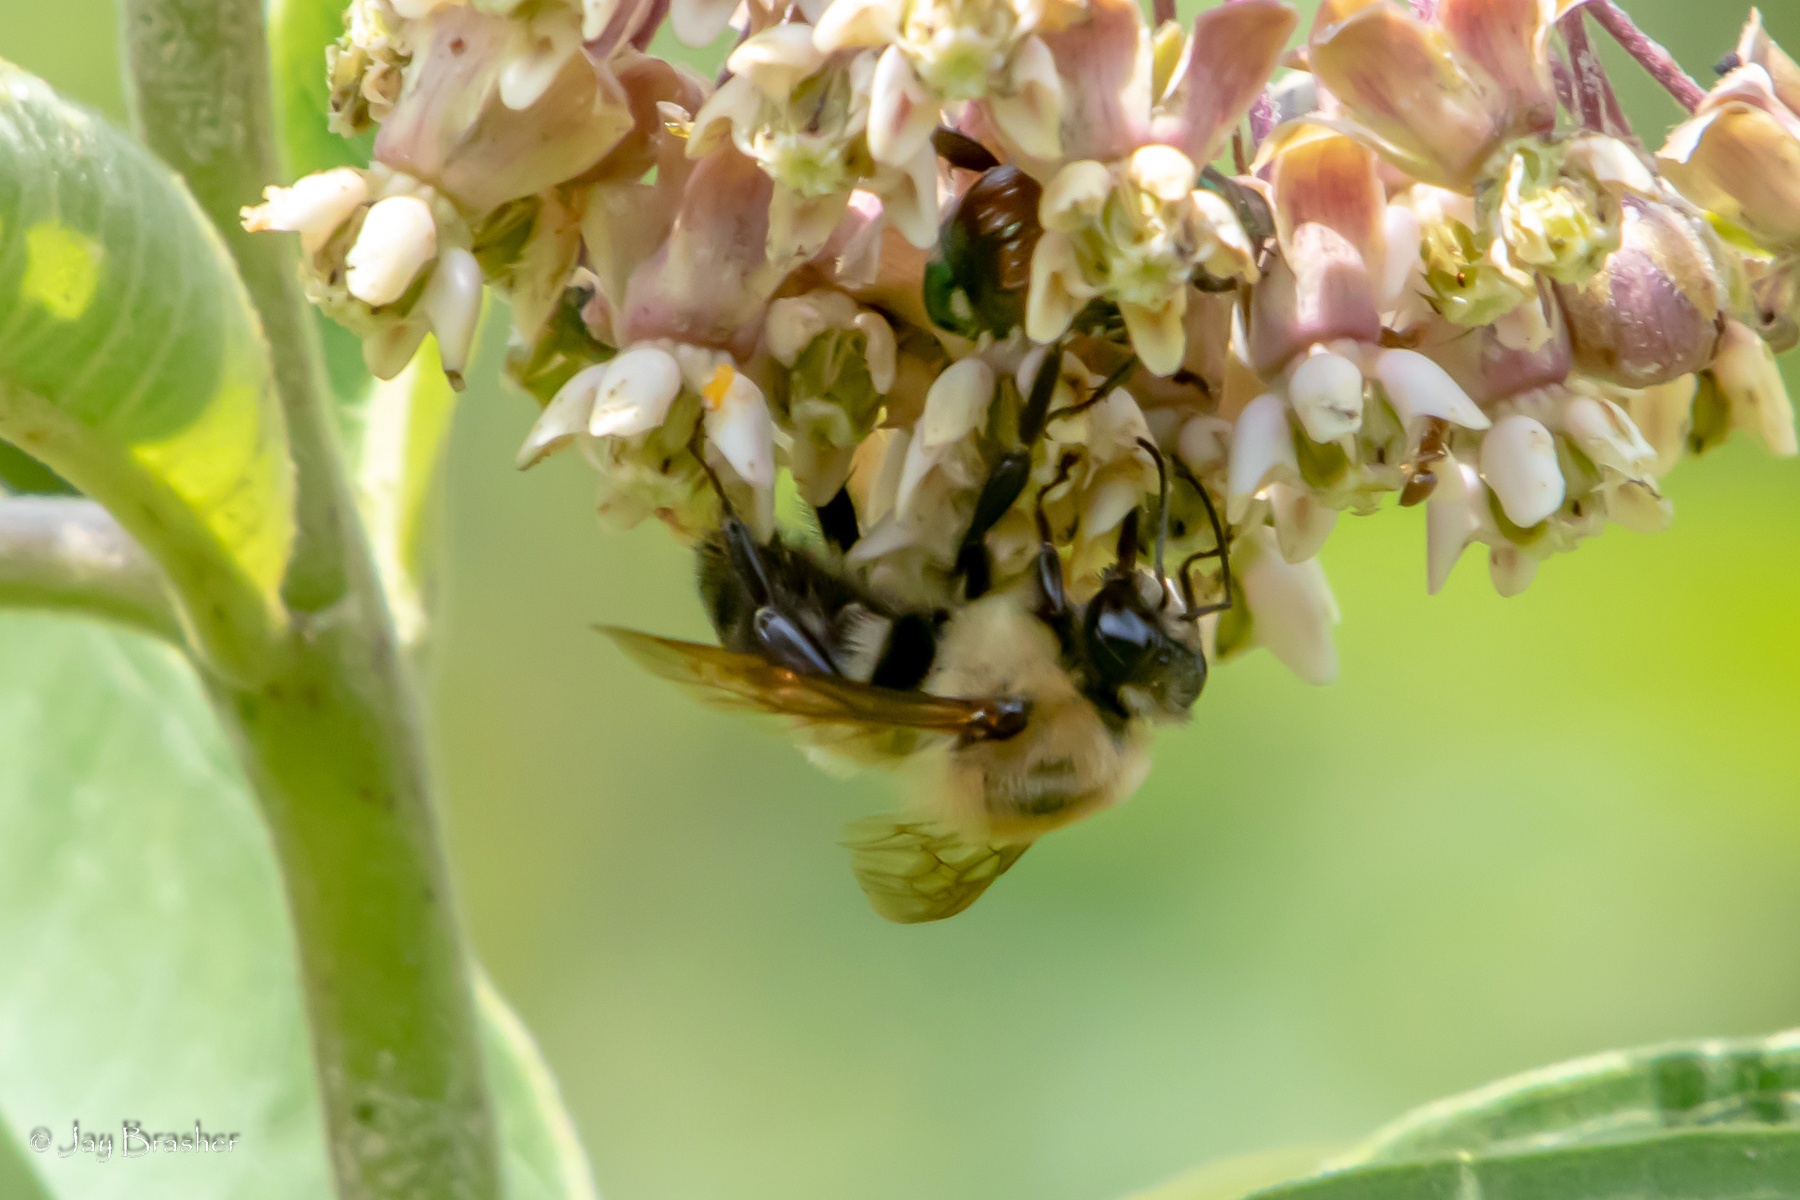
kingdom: Animalia
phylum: Arthropoda
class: Insecta
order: Hymenoptera
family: Apidae
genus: Bombus
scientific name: Bombus griseocollis
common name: Brown-belted bumble bee
